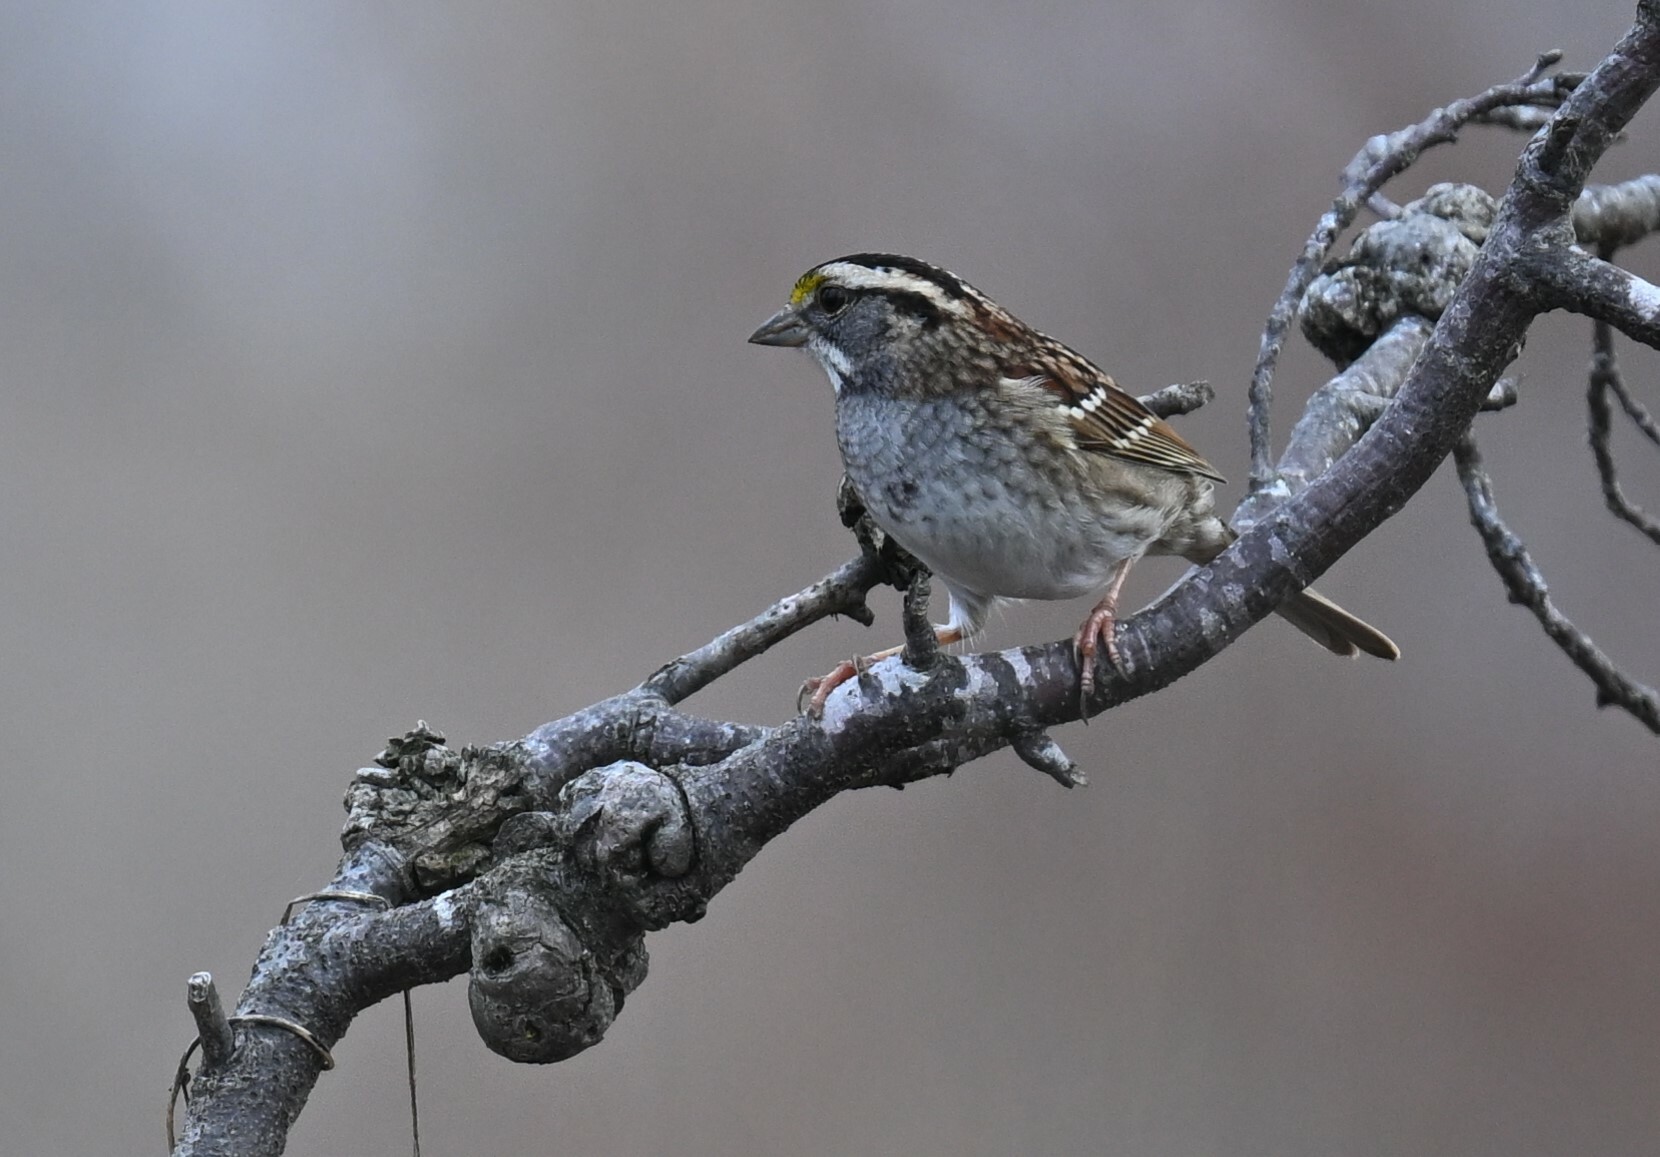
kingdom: Animalia
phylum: Chordata
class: Aves
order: Passeriformes
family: Passerellidae
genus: Zonotrichia
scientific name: Zonotrichia albicollis
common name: White-throated sparrow
